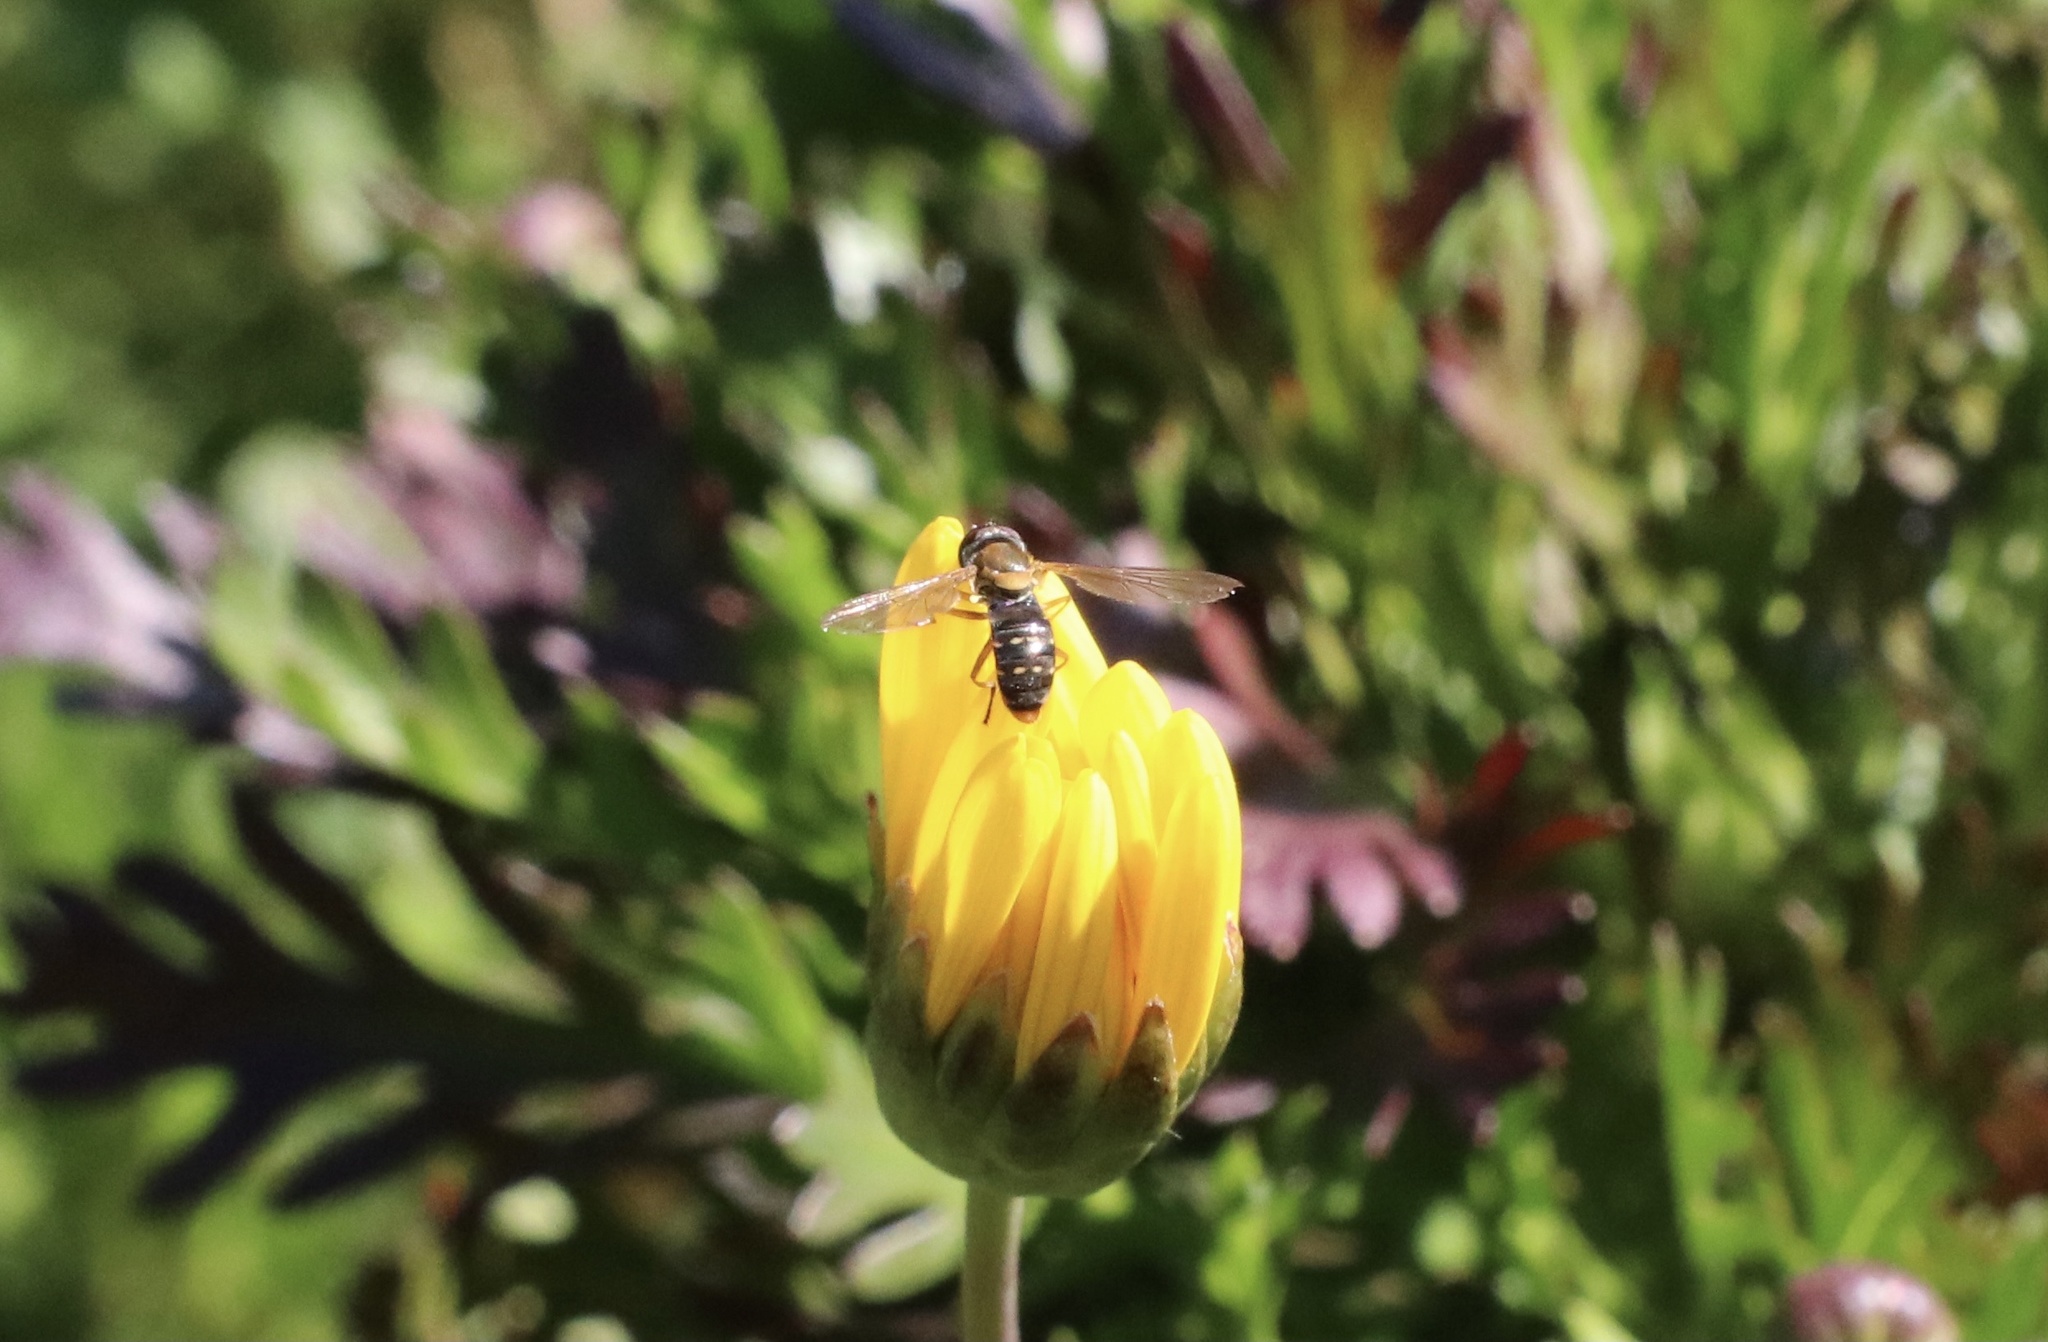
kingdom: Animalia
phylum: Arthropoda
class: Insecta
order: Diptera
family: Syrphidae
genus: Toxomerus
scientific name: Toxomerus vertebratus
